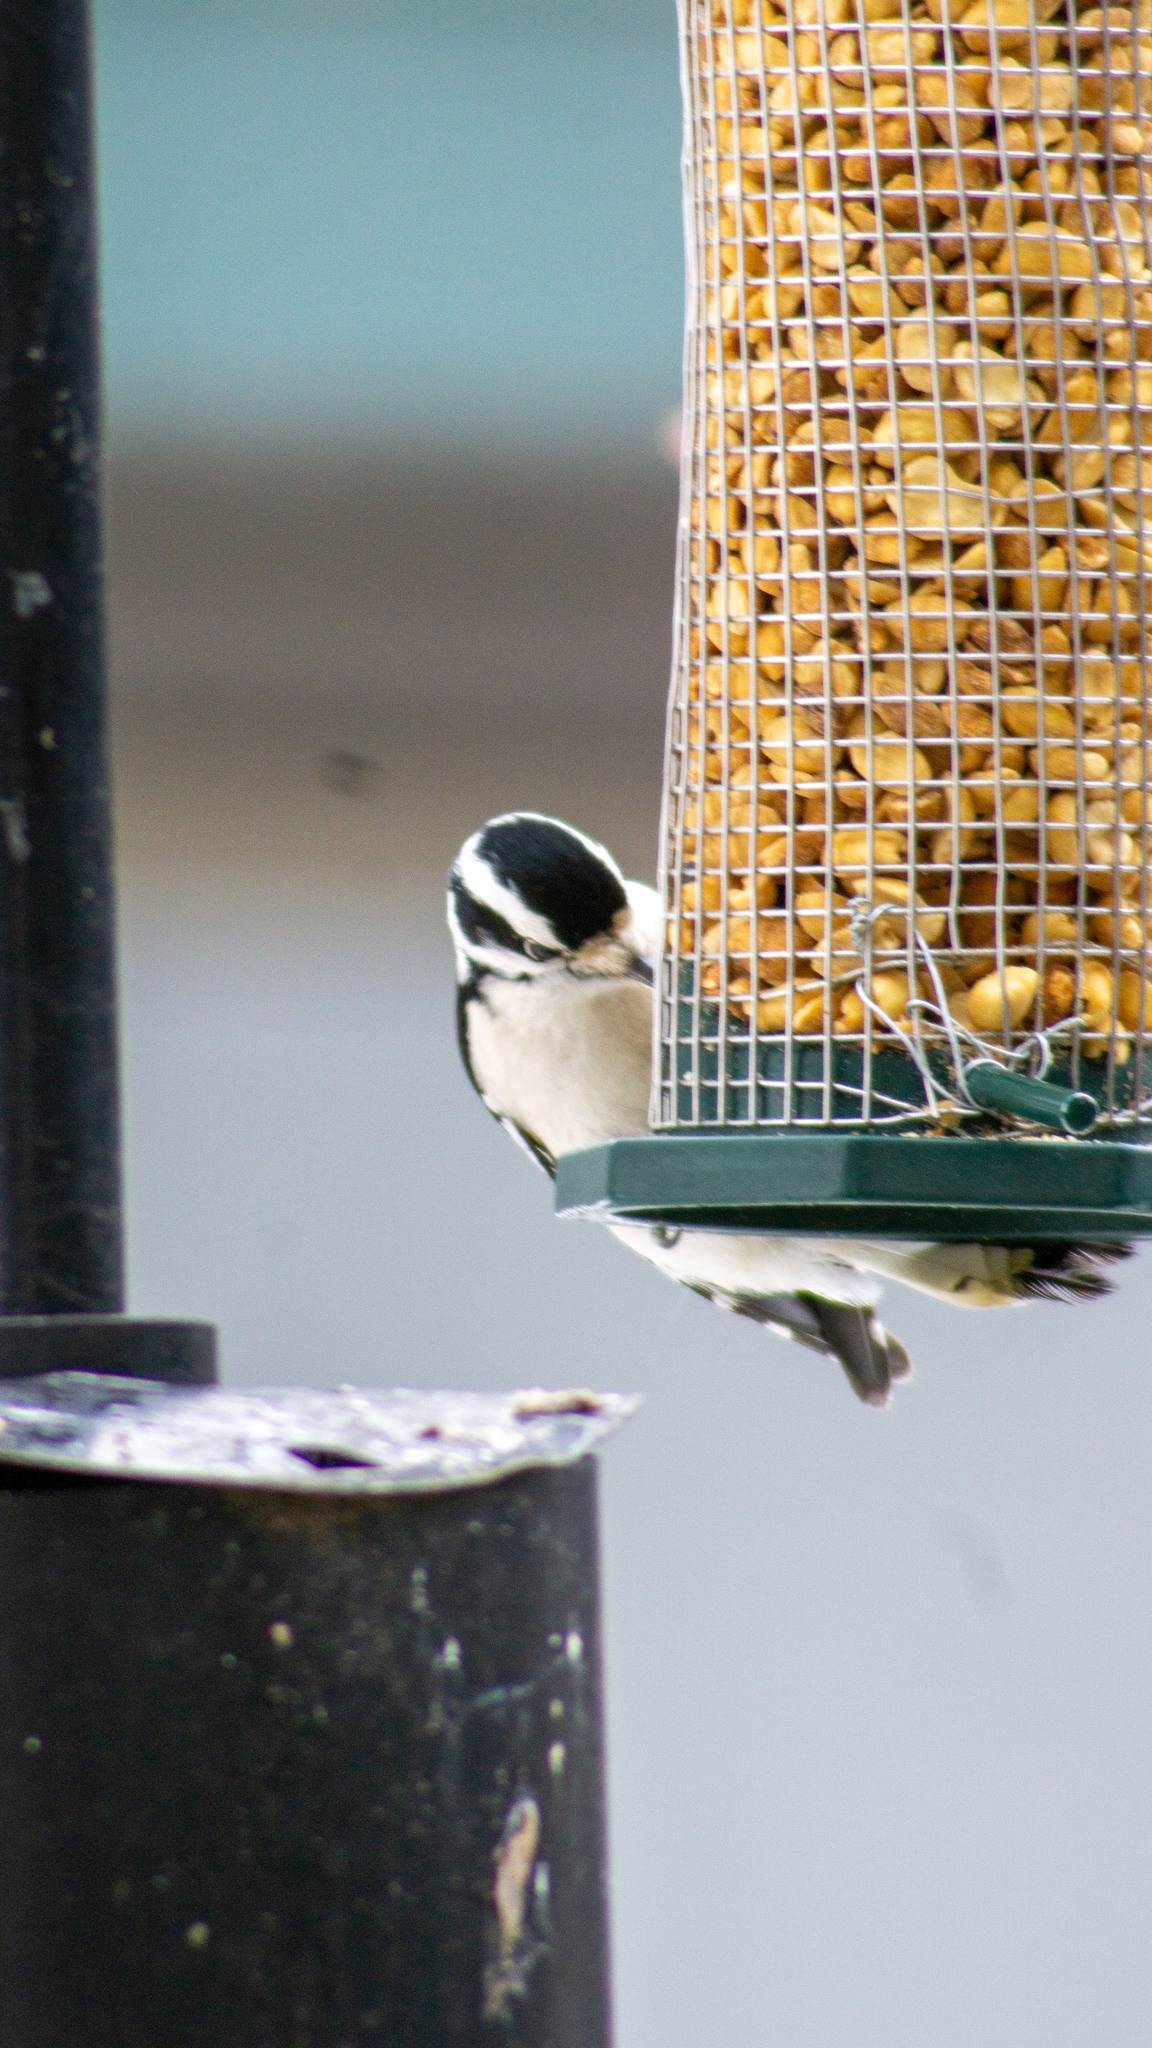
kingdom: Animalia
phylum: Chordata
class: Aves
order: Piciformes
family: Picidae
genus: Dryobates
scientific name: Dryobates pubescens
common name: Downy woodpecker
